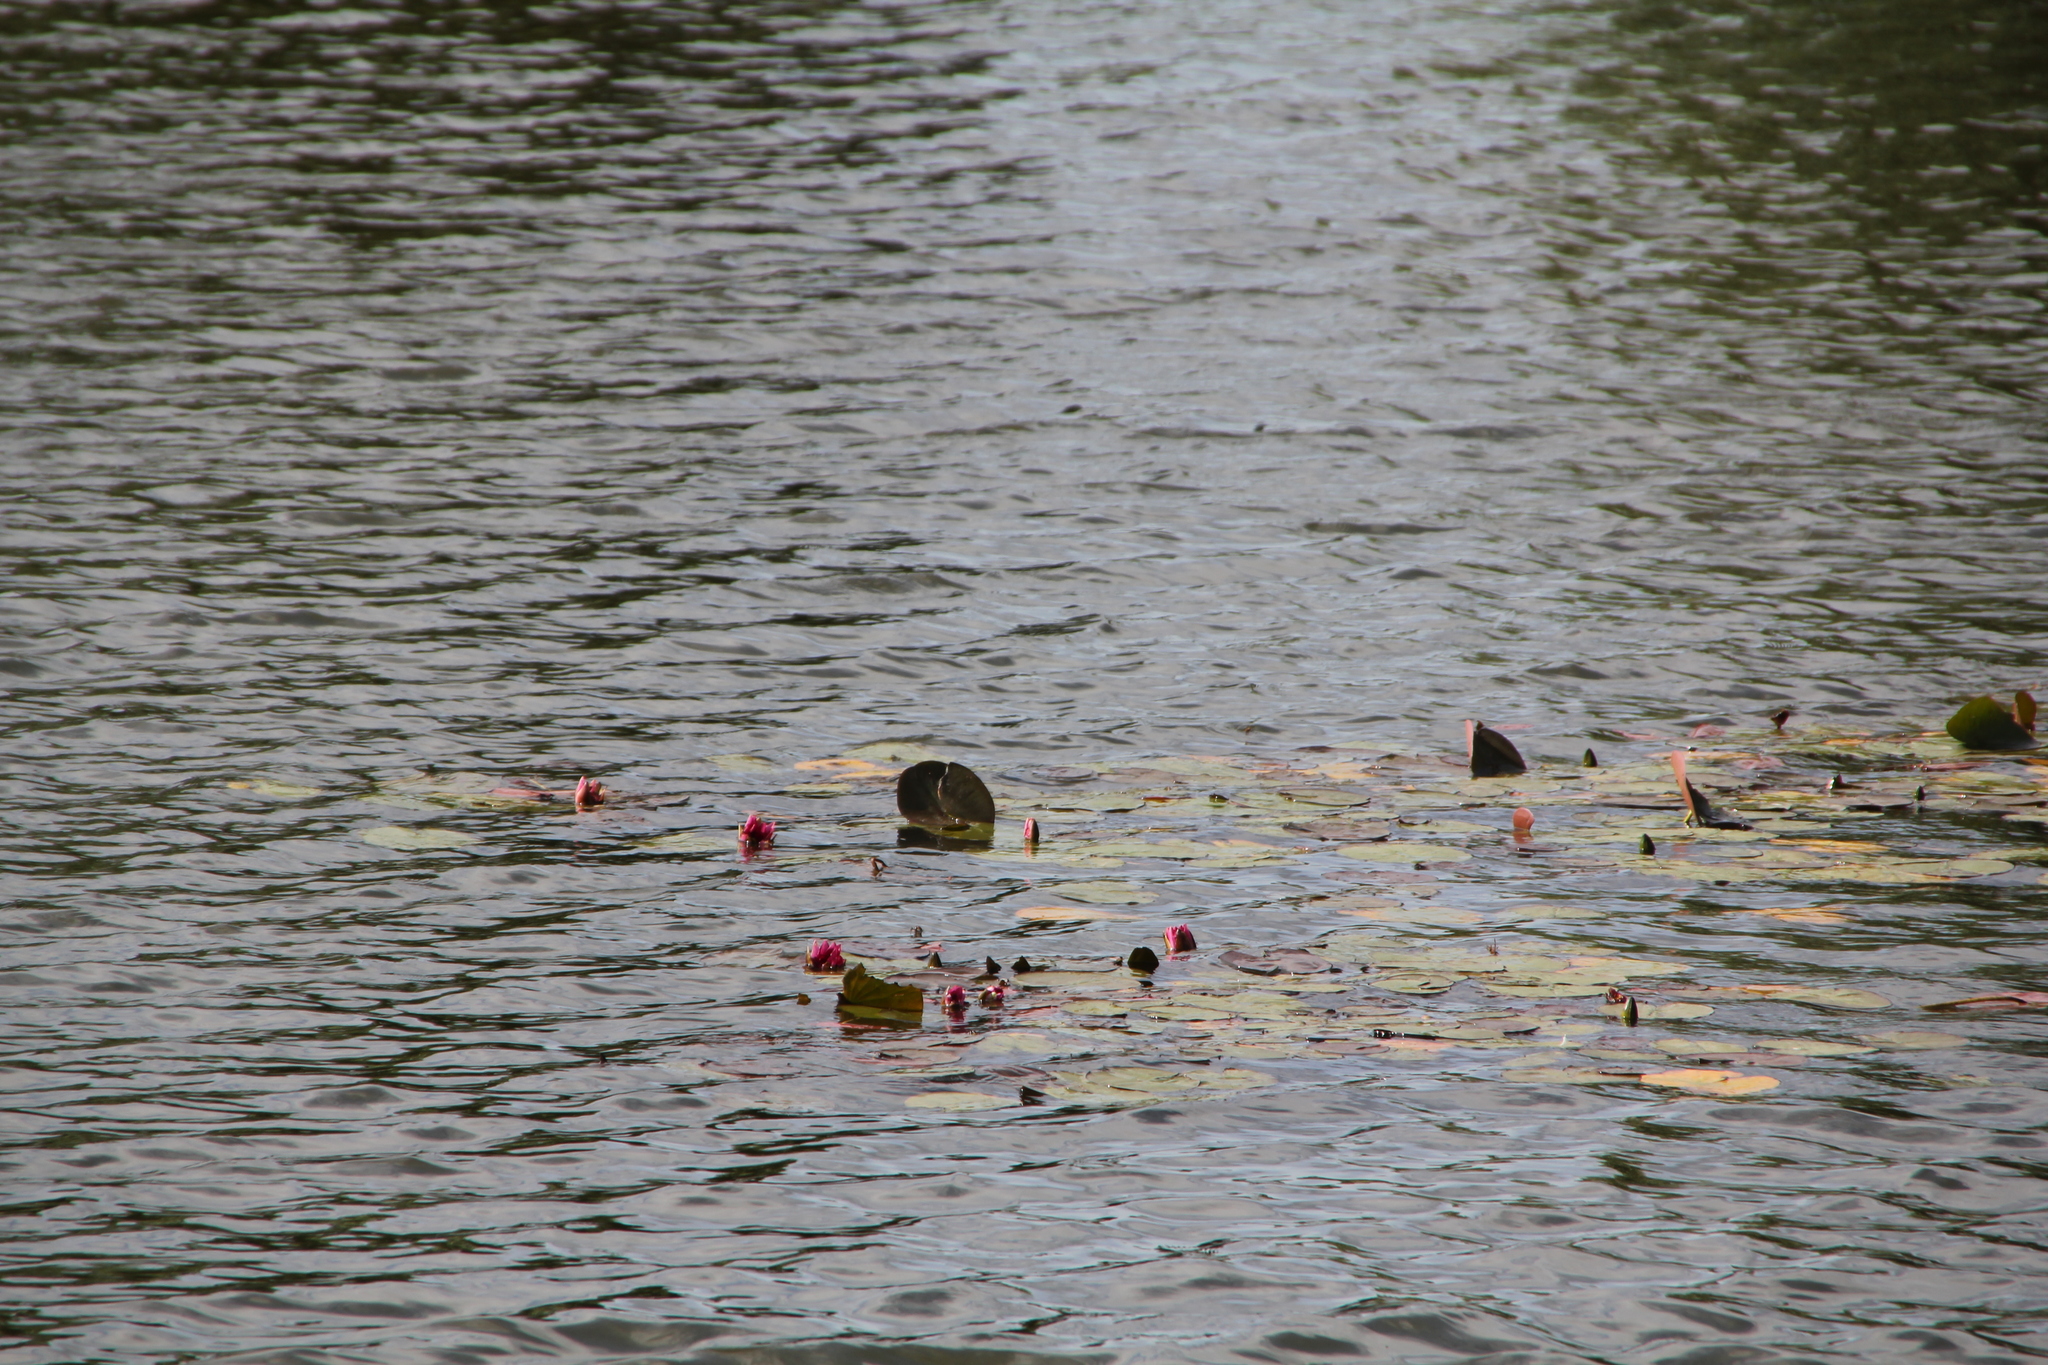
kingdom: Plantae
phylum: Tracheophyta
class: Magnoliopsida
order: Nymphaeales
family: Nymphaeaceae
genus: Nymphaea
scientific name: Nymphaea khurooi
